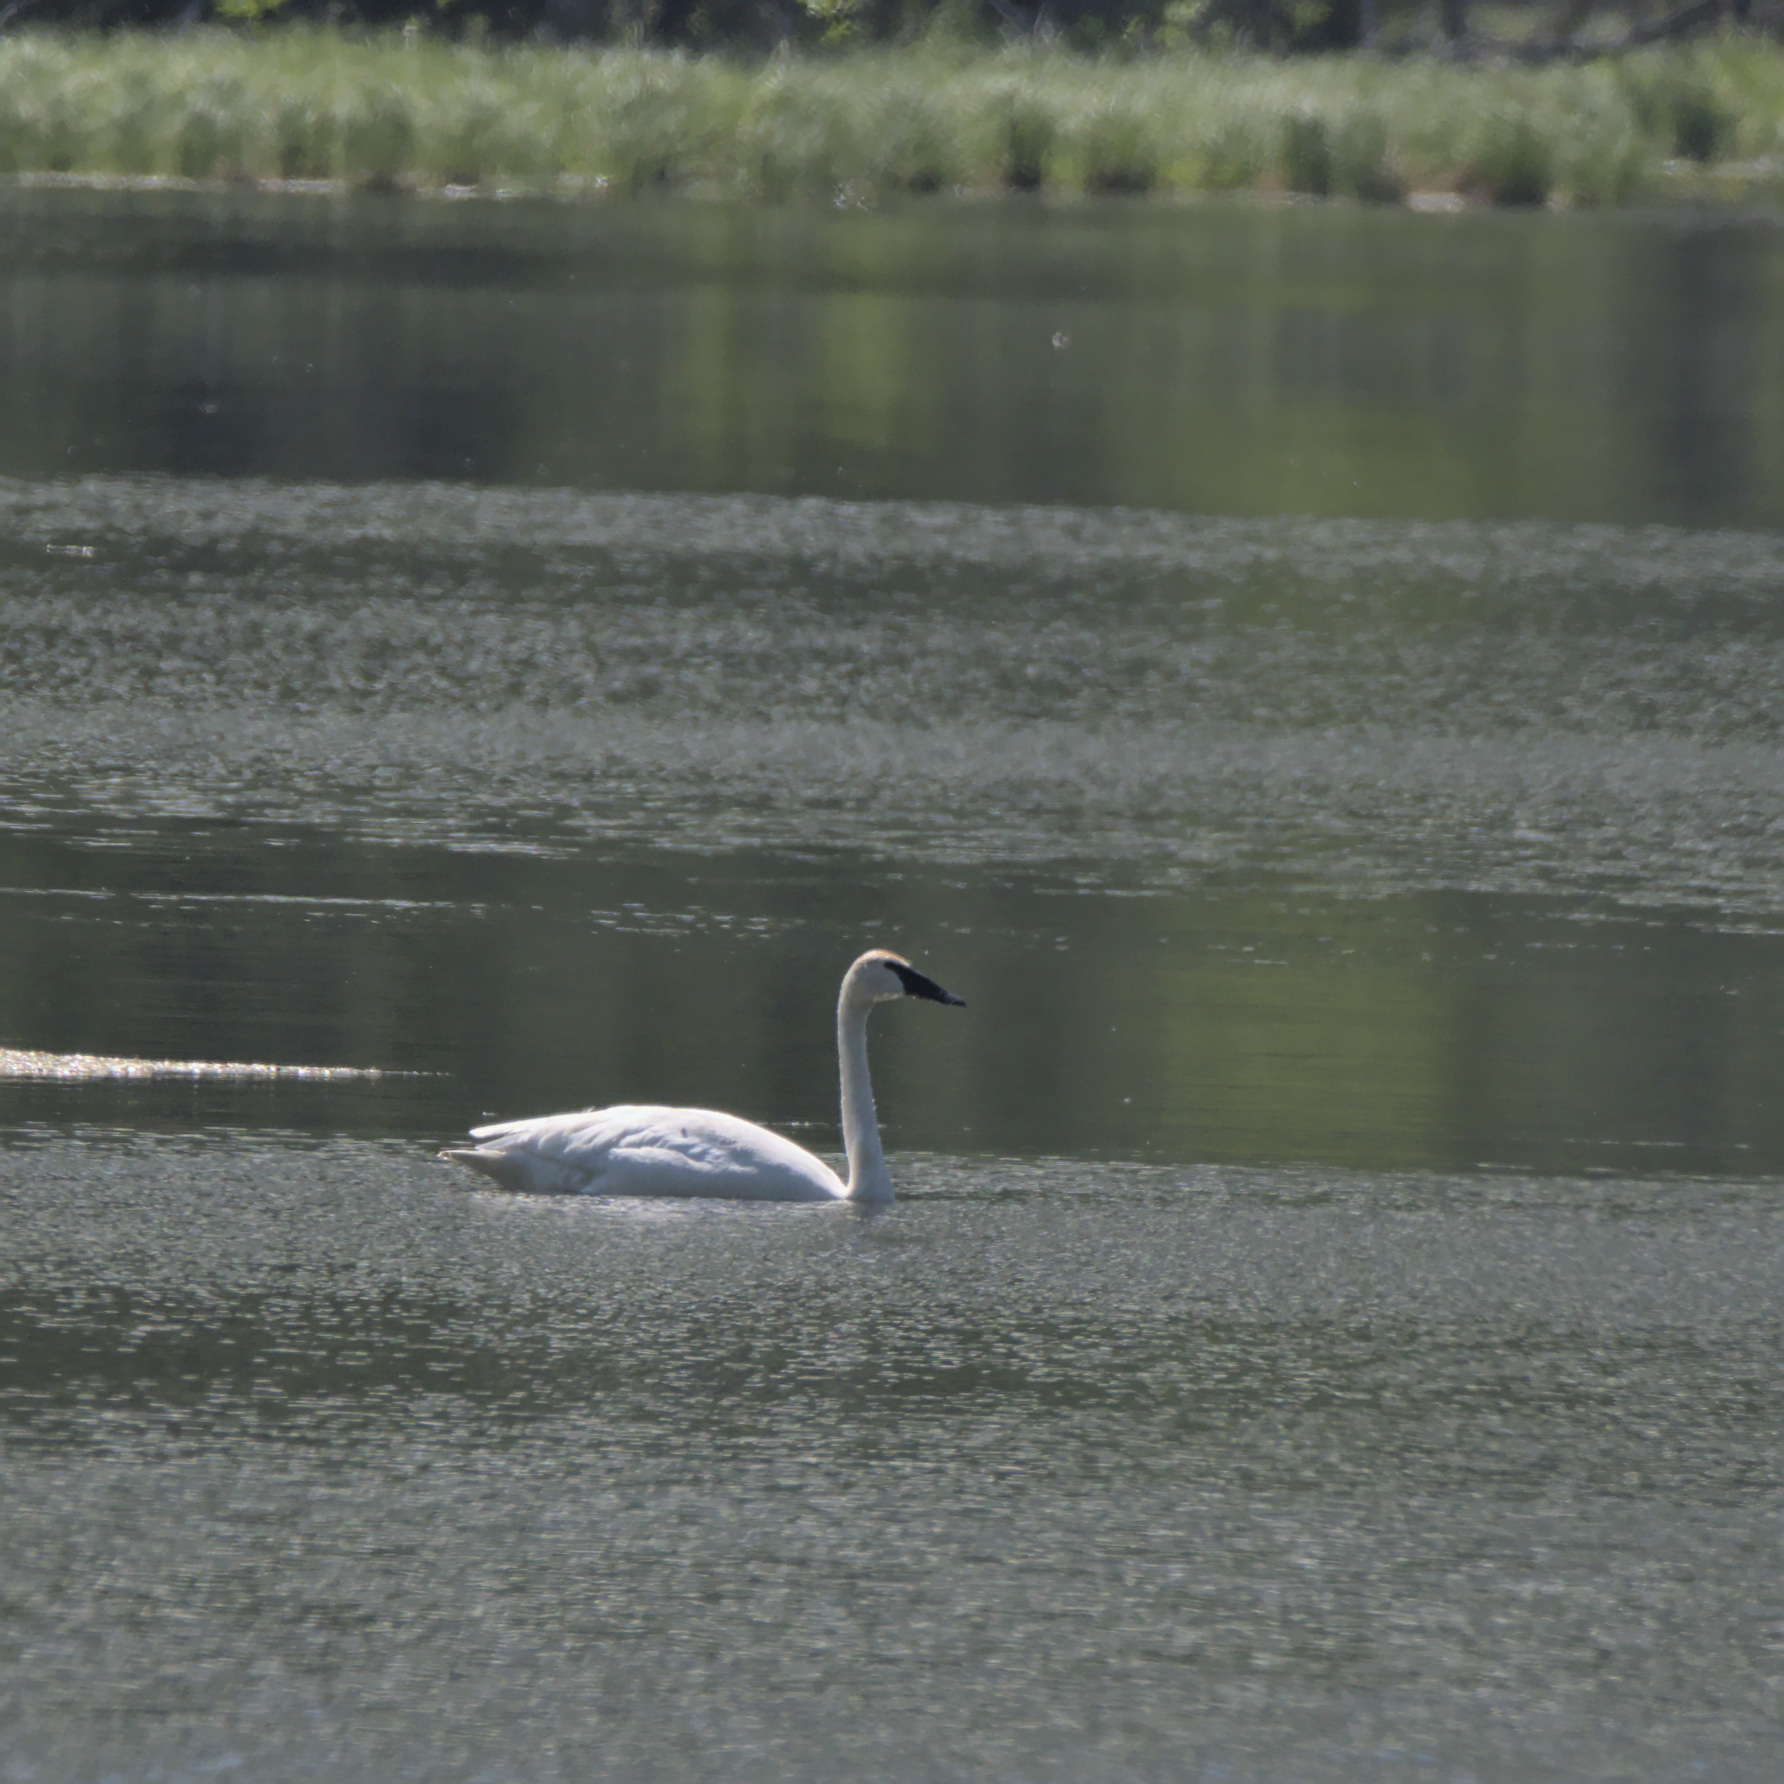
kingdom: Animalia
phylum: Chordata
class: Aves
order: Anseriformes
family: Anatidae
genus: Cygnus
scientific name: Cygnus buccinator
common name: Trumpeter swan
